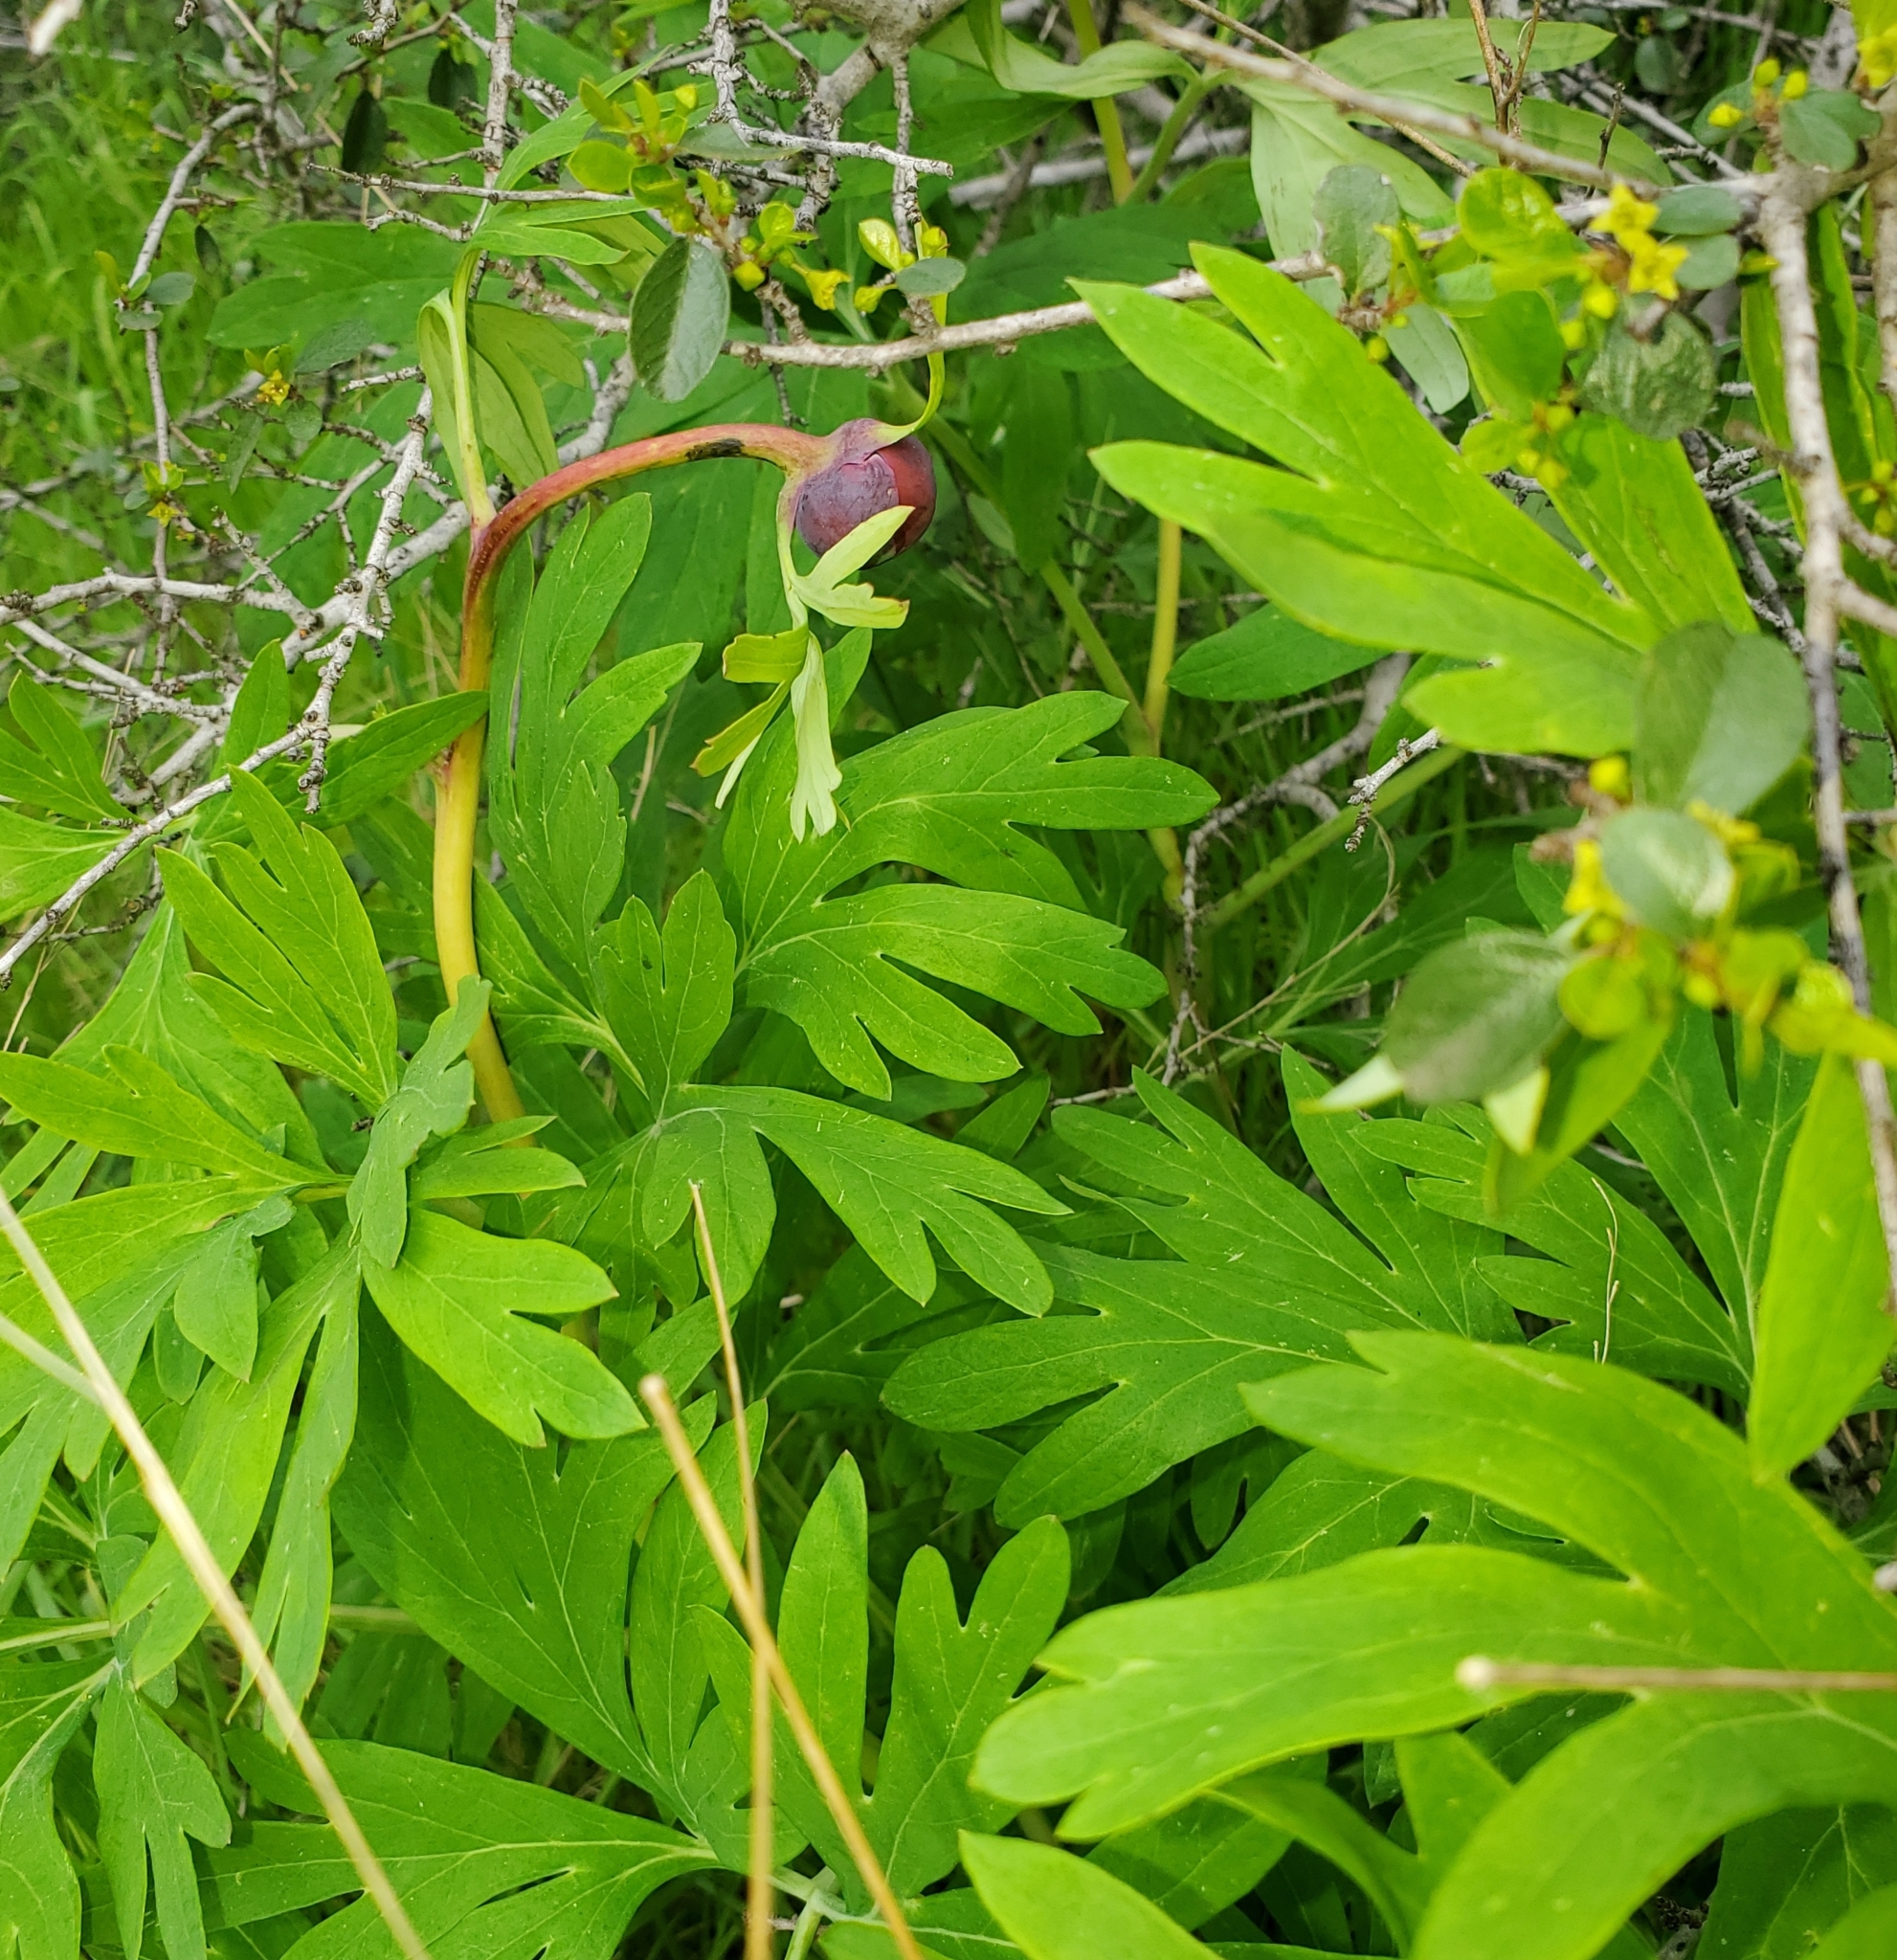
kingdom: Plantae
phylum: Tracheophyta
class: Magnoliopsida
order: Saxifragales
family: Paeoniaceae
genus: Paeonia
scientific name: Paeonia californica
